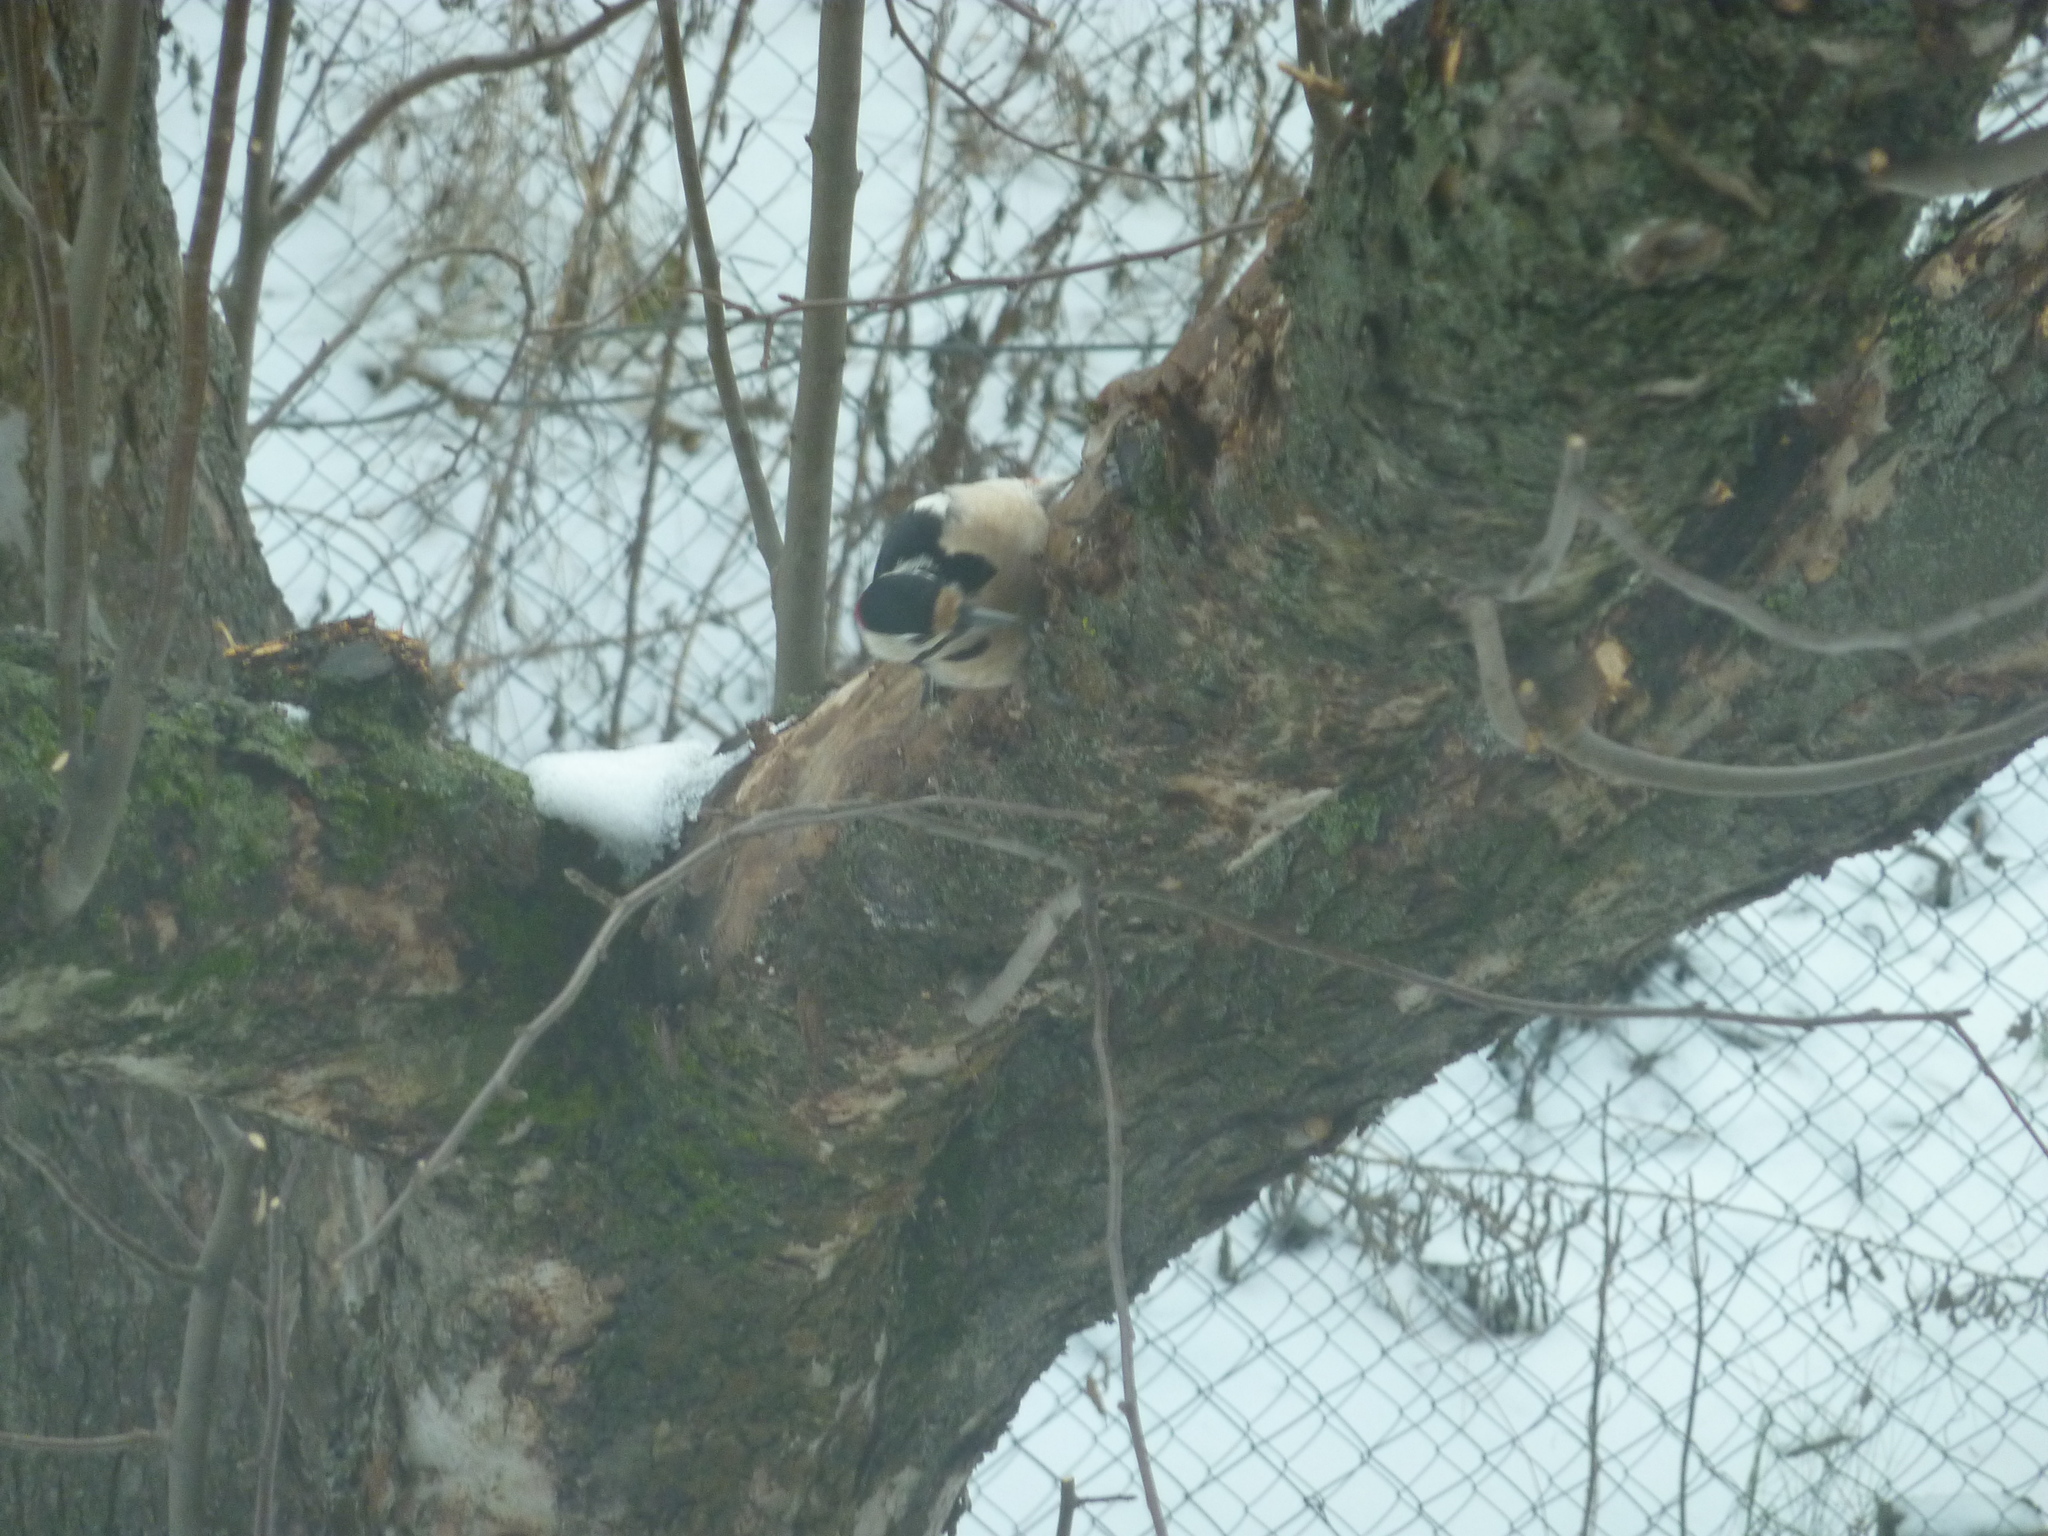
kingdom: Animalia
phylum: Chordata
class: Aves
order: Piciformes
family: Picidae
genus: Dendrocopos
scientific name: Dendrocopos major
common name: Great spotted woodpecker
